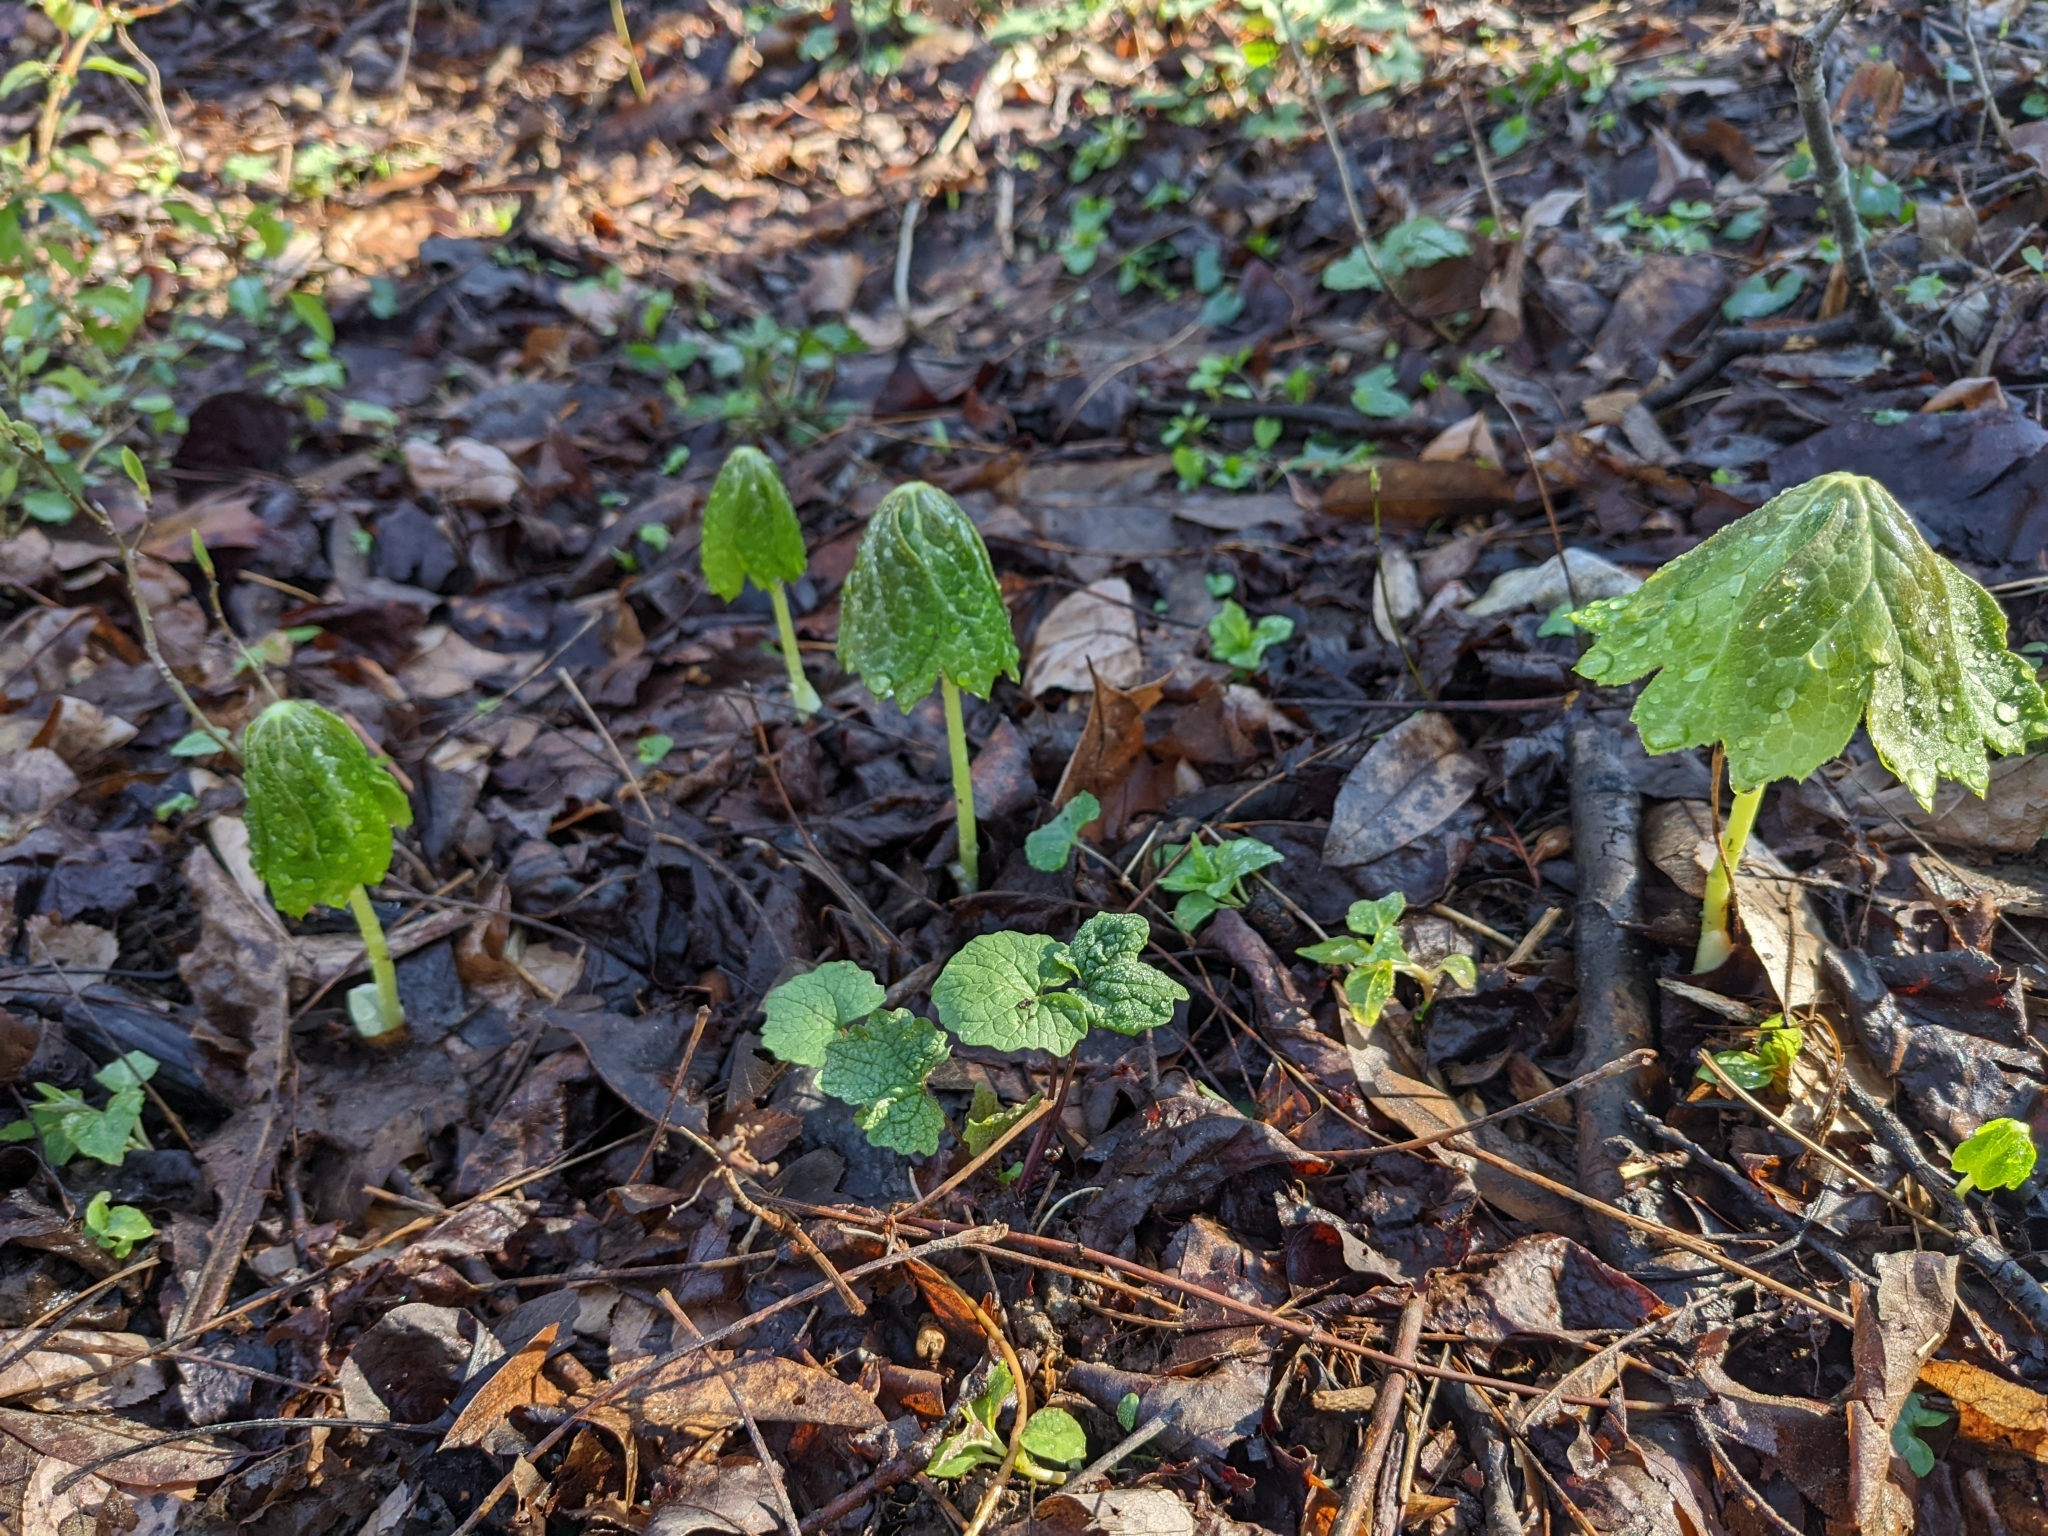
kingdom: Plantae
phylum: Tracheophyta
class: Magnoliopsida
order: Ranunculales
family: Berberidaceae
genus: Podophyllum
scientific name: Podophyllum peltatum
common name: Wild mandrake
